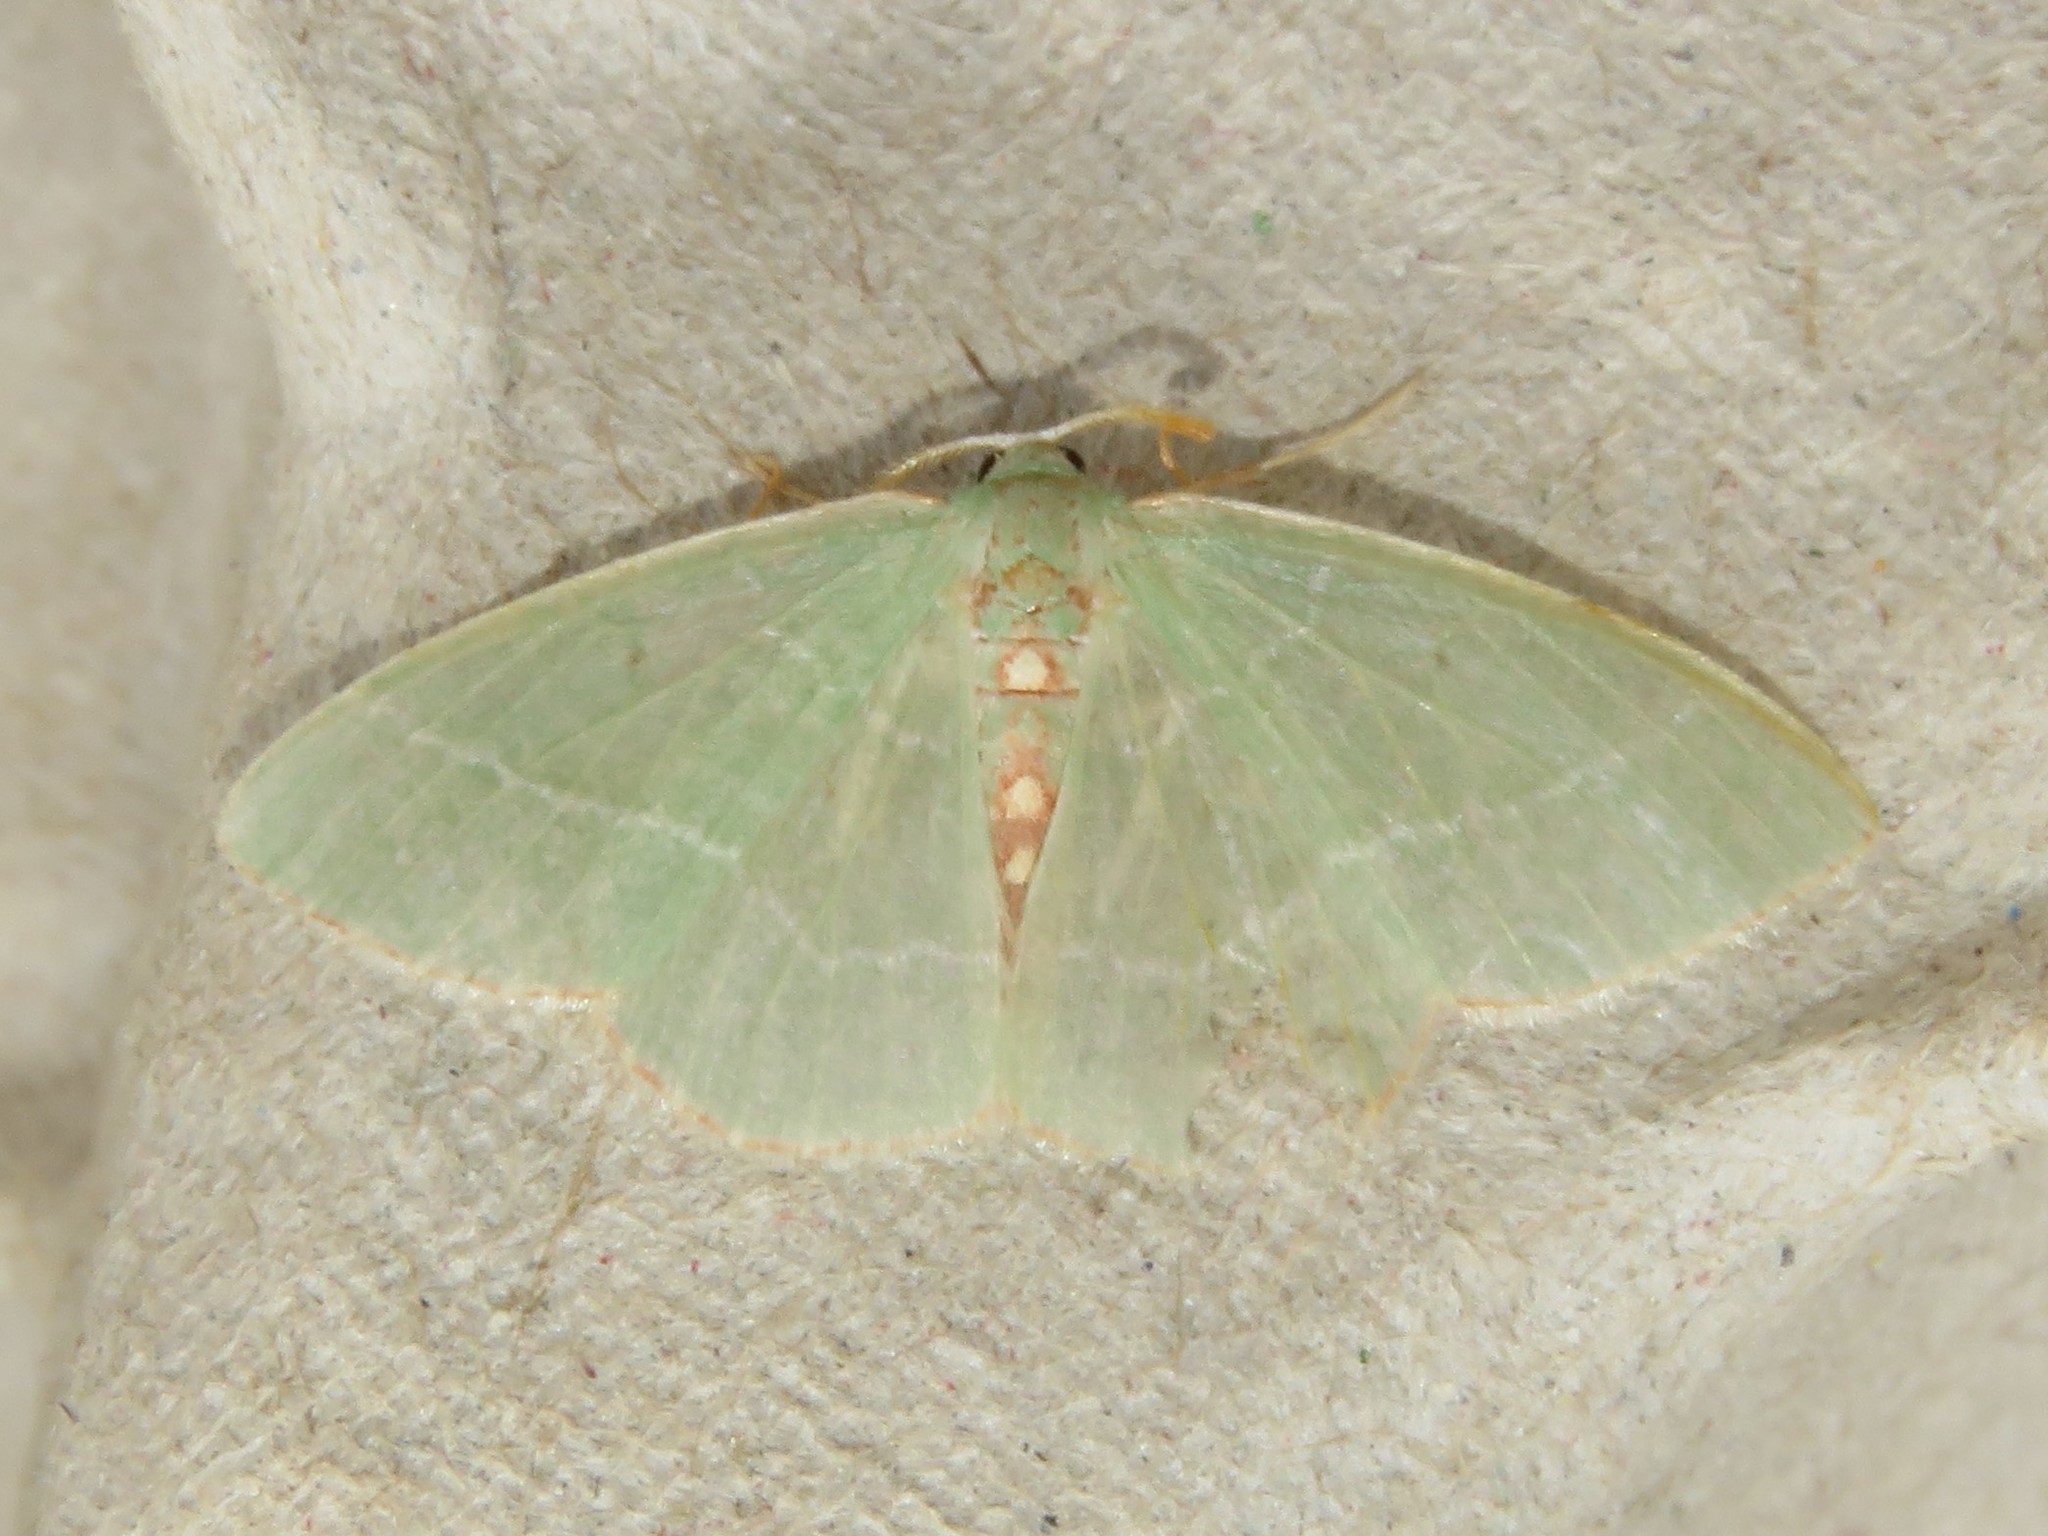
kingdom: Animalia
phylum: Arthropoda
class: Insecta
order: Lepidoptera
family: Geometridae
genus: Nemoria
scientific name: Nemoria bistriaria
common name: Red-fringed emerald
